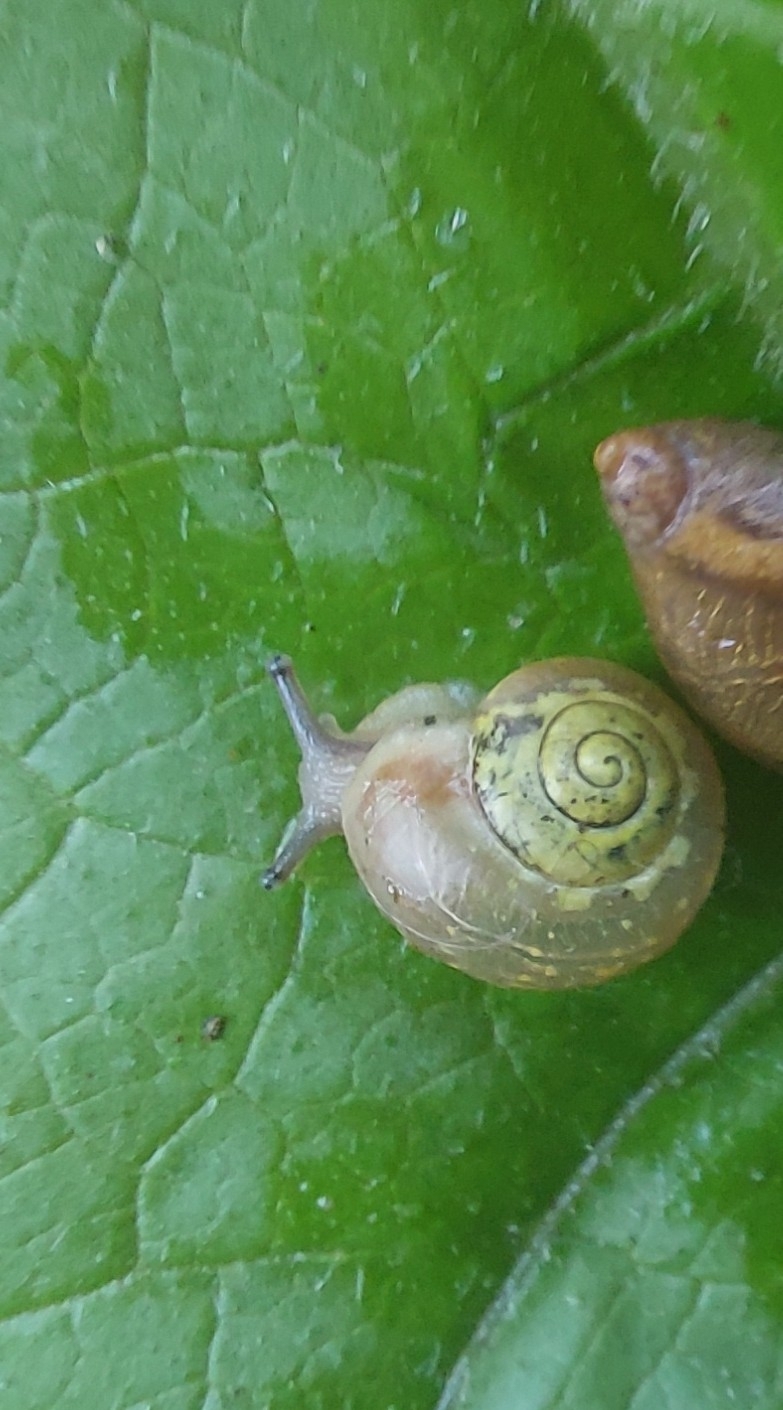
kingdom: Animalia
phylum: Mollusca
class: Gastropoda
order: Stylommatophora
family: Camaenidae
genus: Fruticicola
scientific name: Fruticicola fruticum
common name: Bush snail
